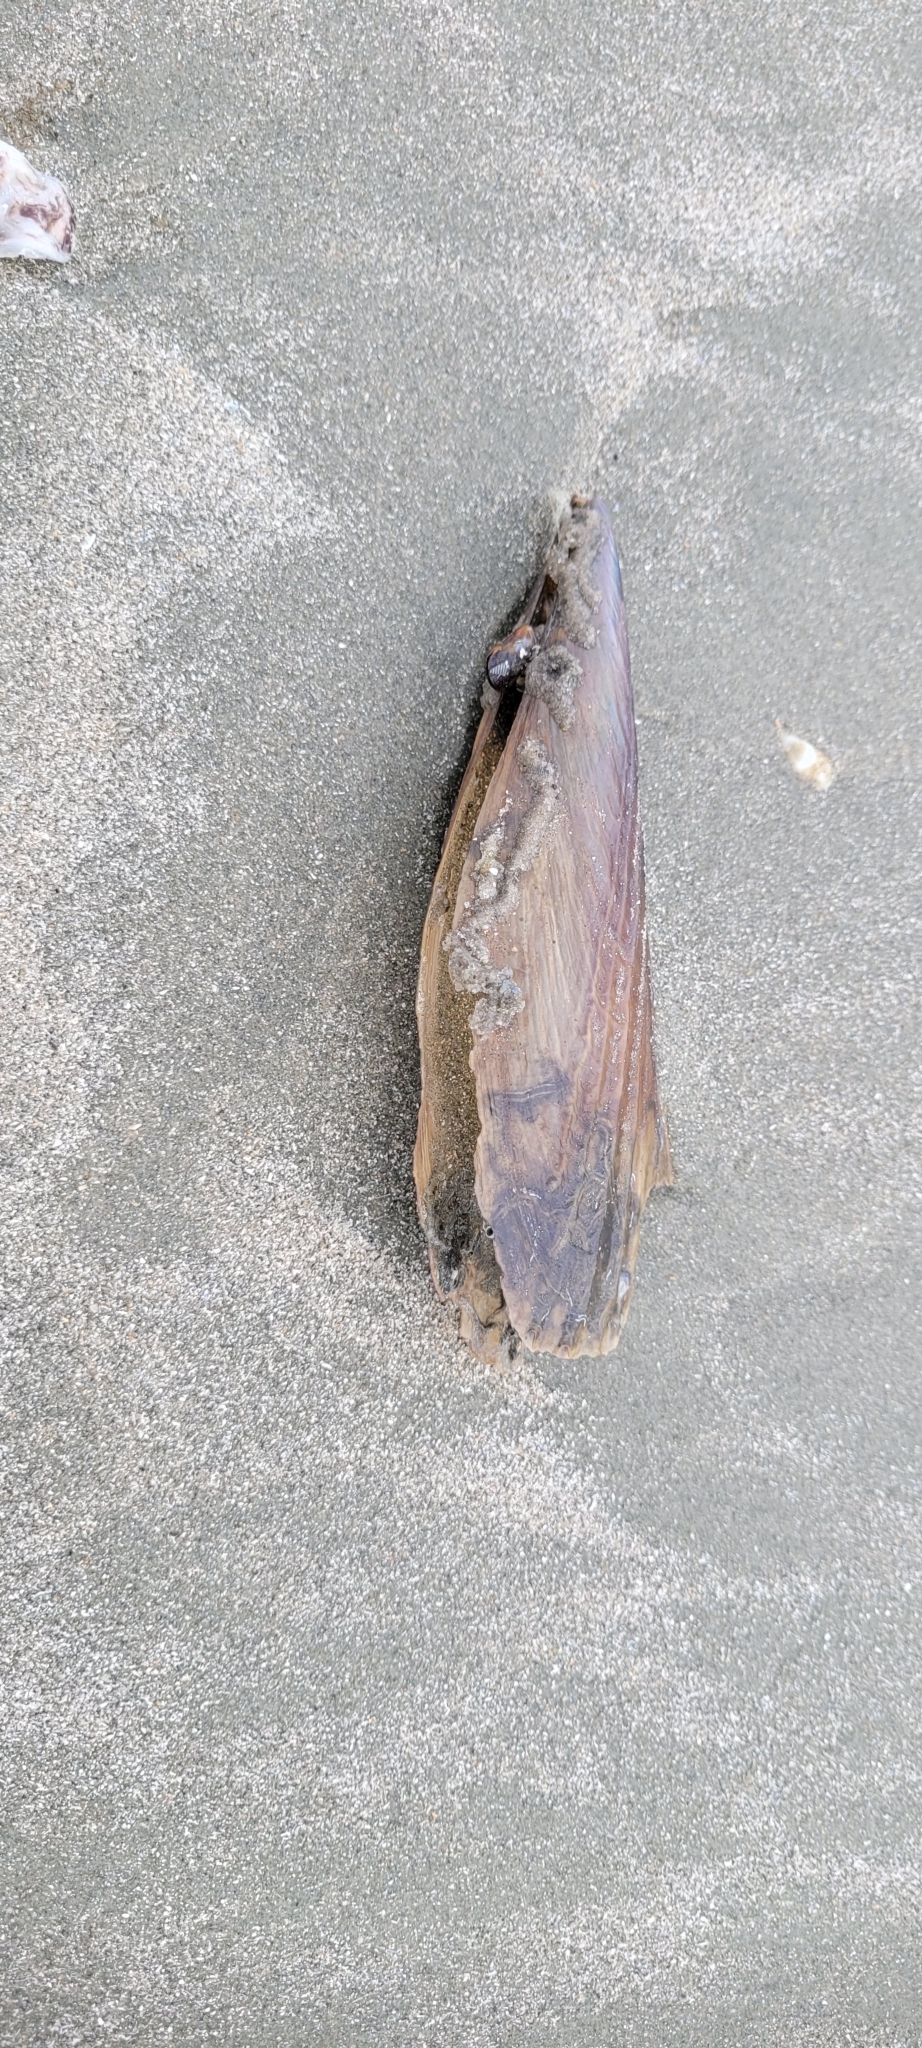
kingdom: Animalia
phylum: Mollusca
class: Bivalvia
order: Ostreida
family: Pinnidae
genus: Atrina
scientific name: Atrina seminuda
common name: Half-naked penshell
